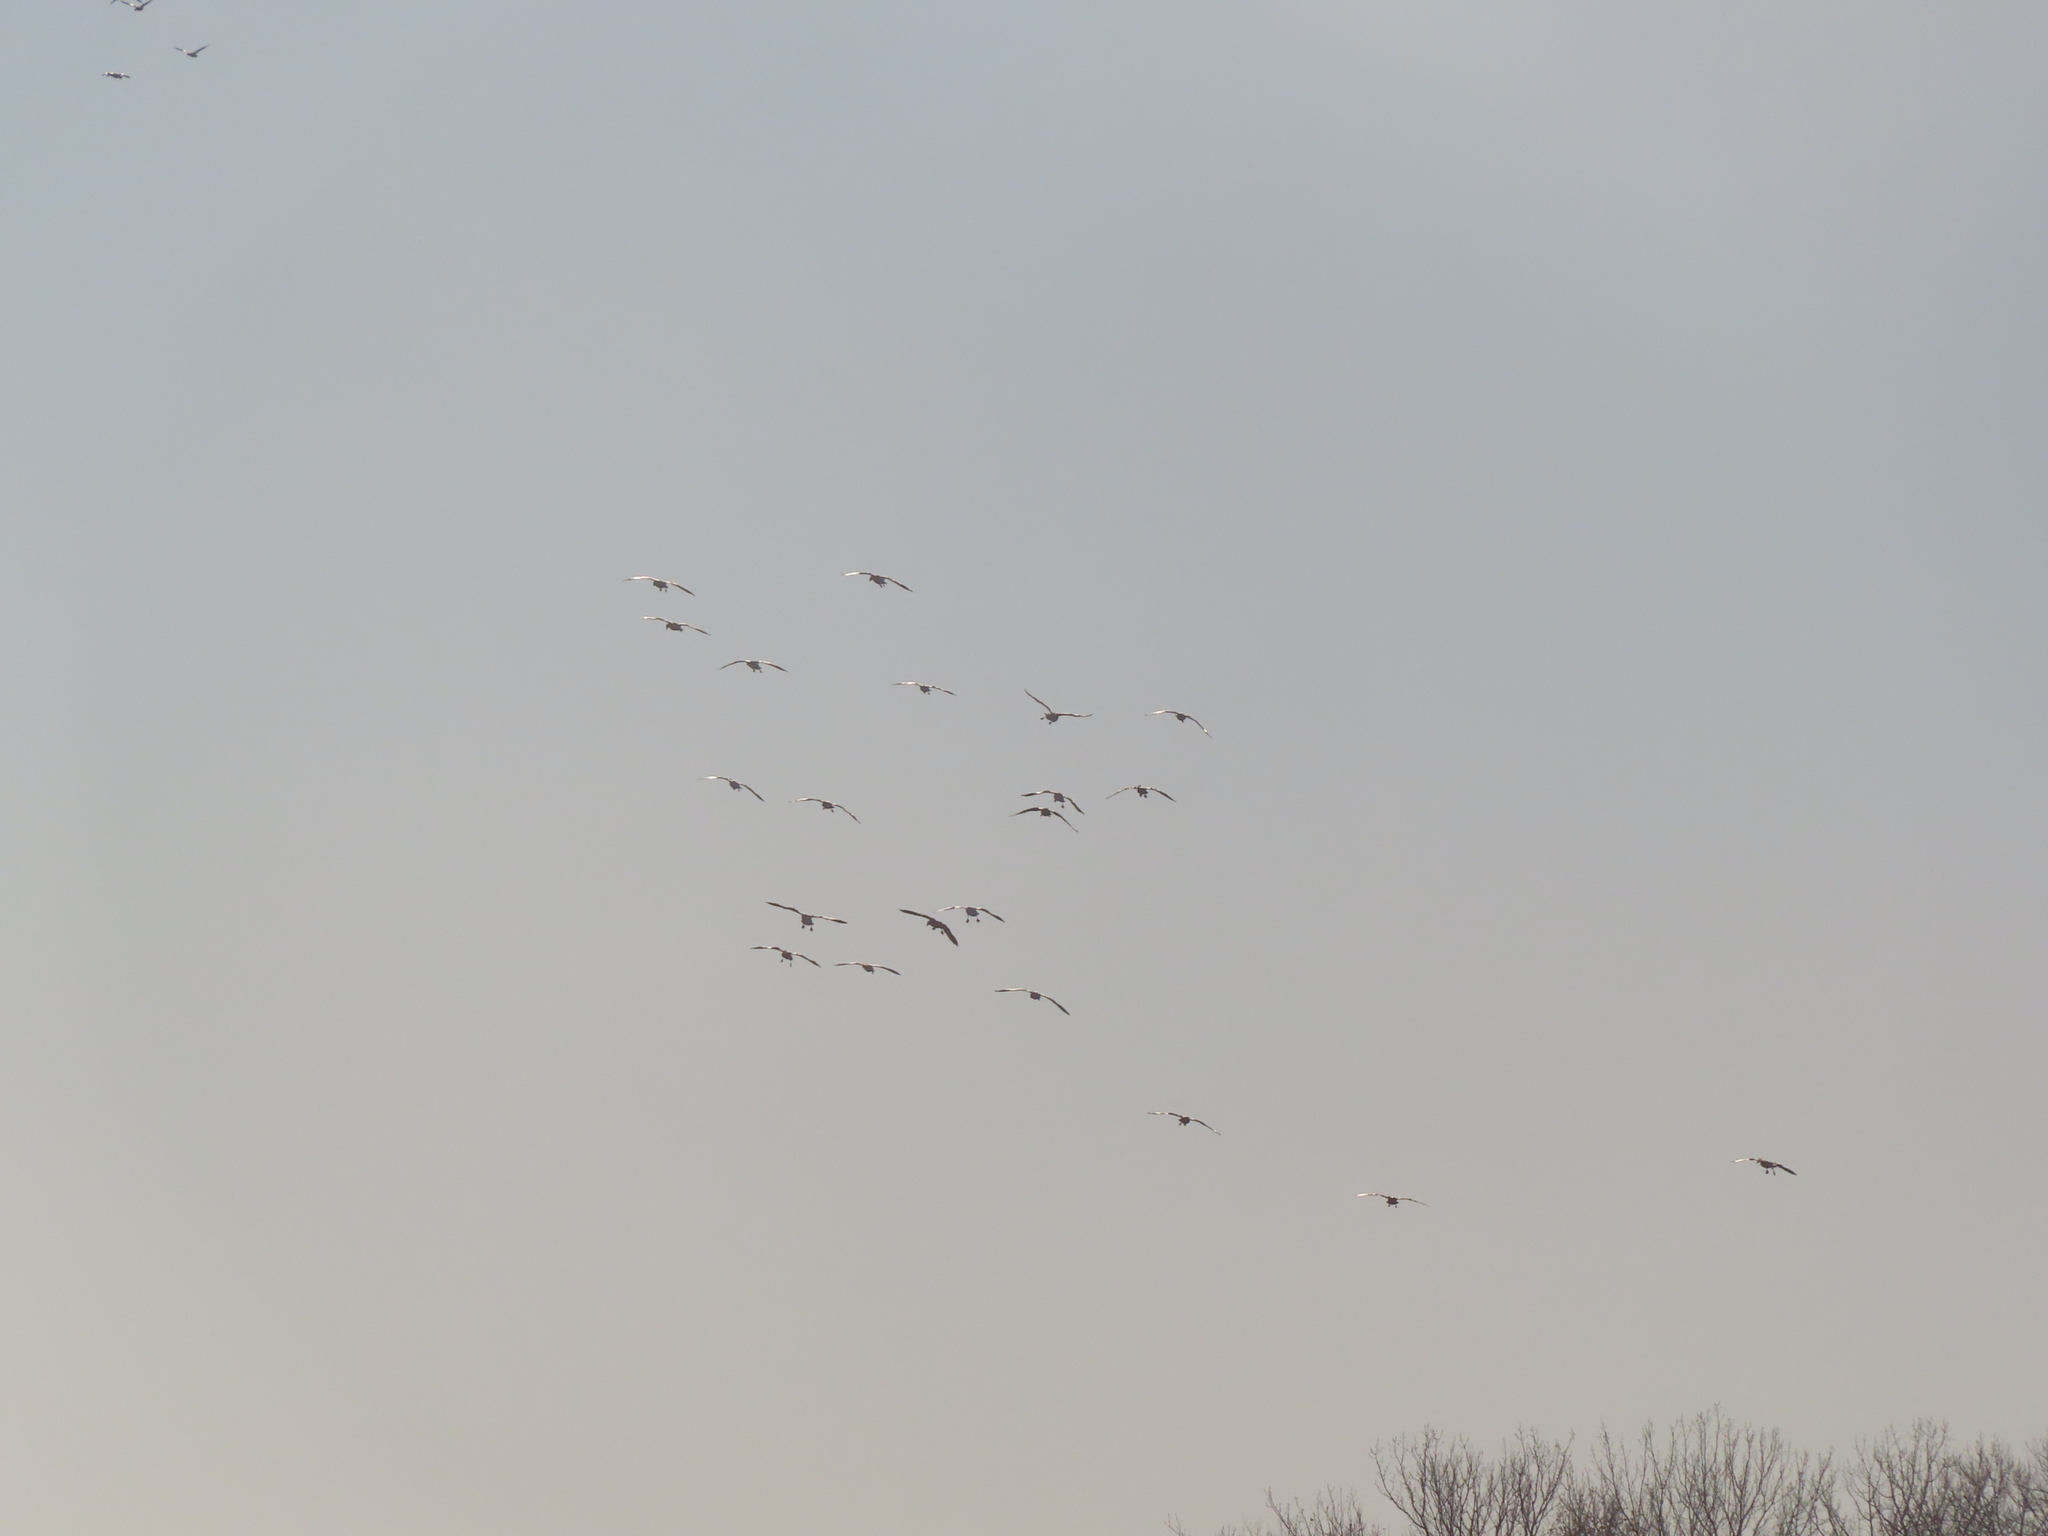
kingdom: Animalia
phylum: Chordata
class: Aves
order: Anseriformes
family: Anatidae
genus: Anser
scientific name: Anser caerulescens
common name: Snow goose
